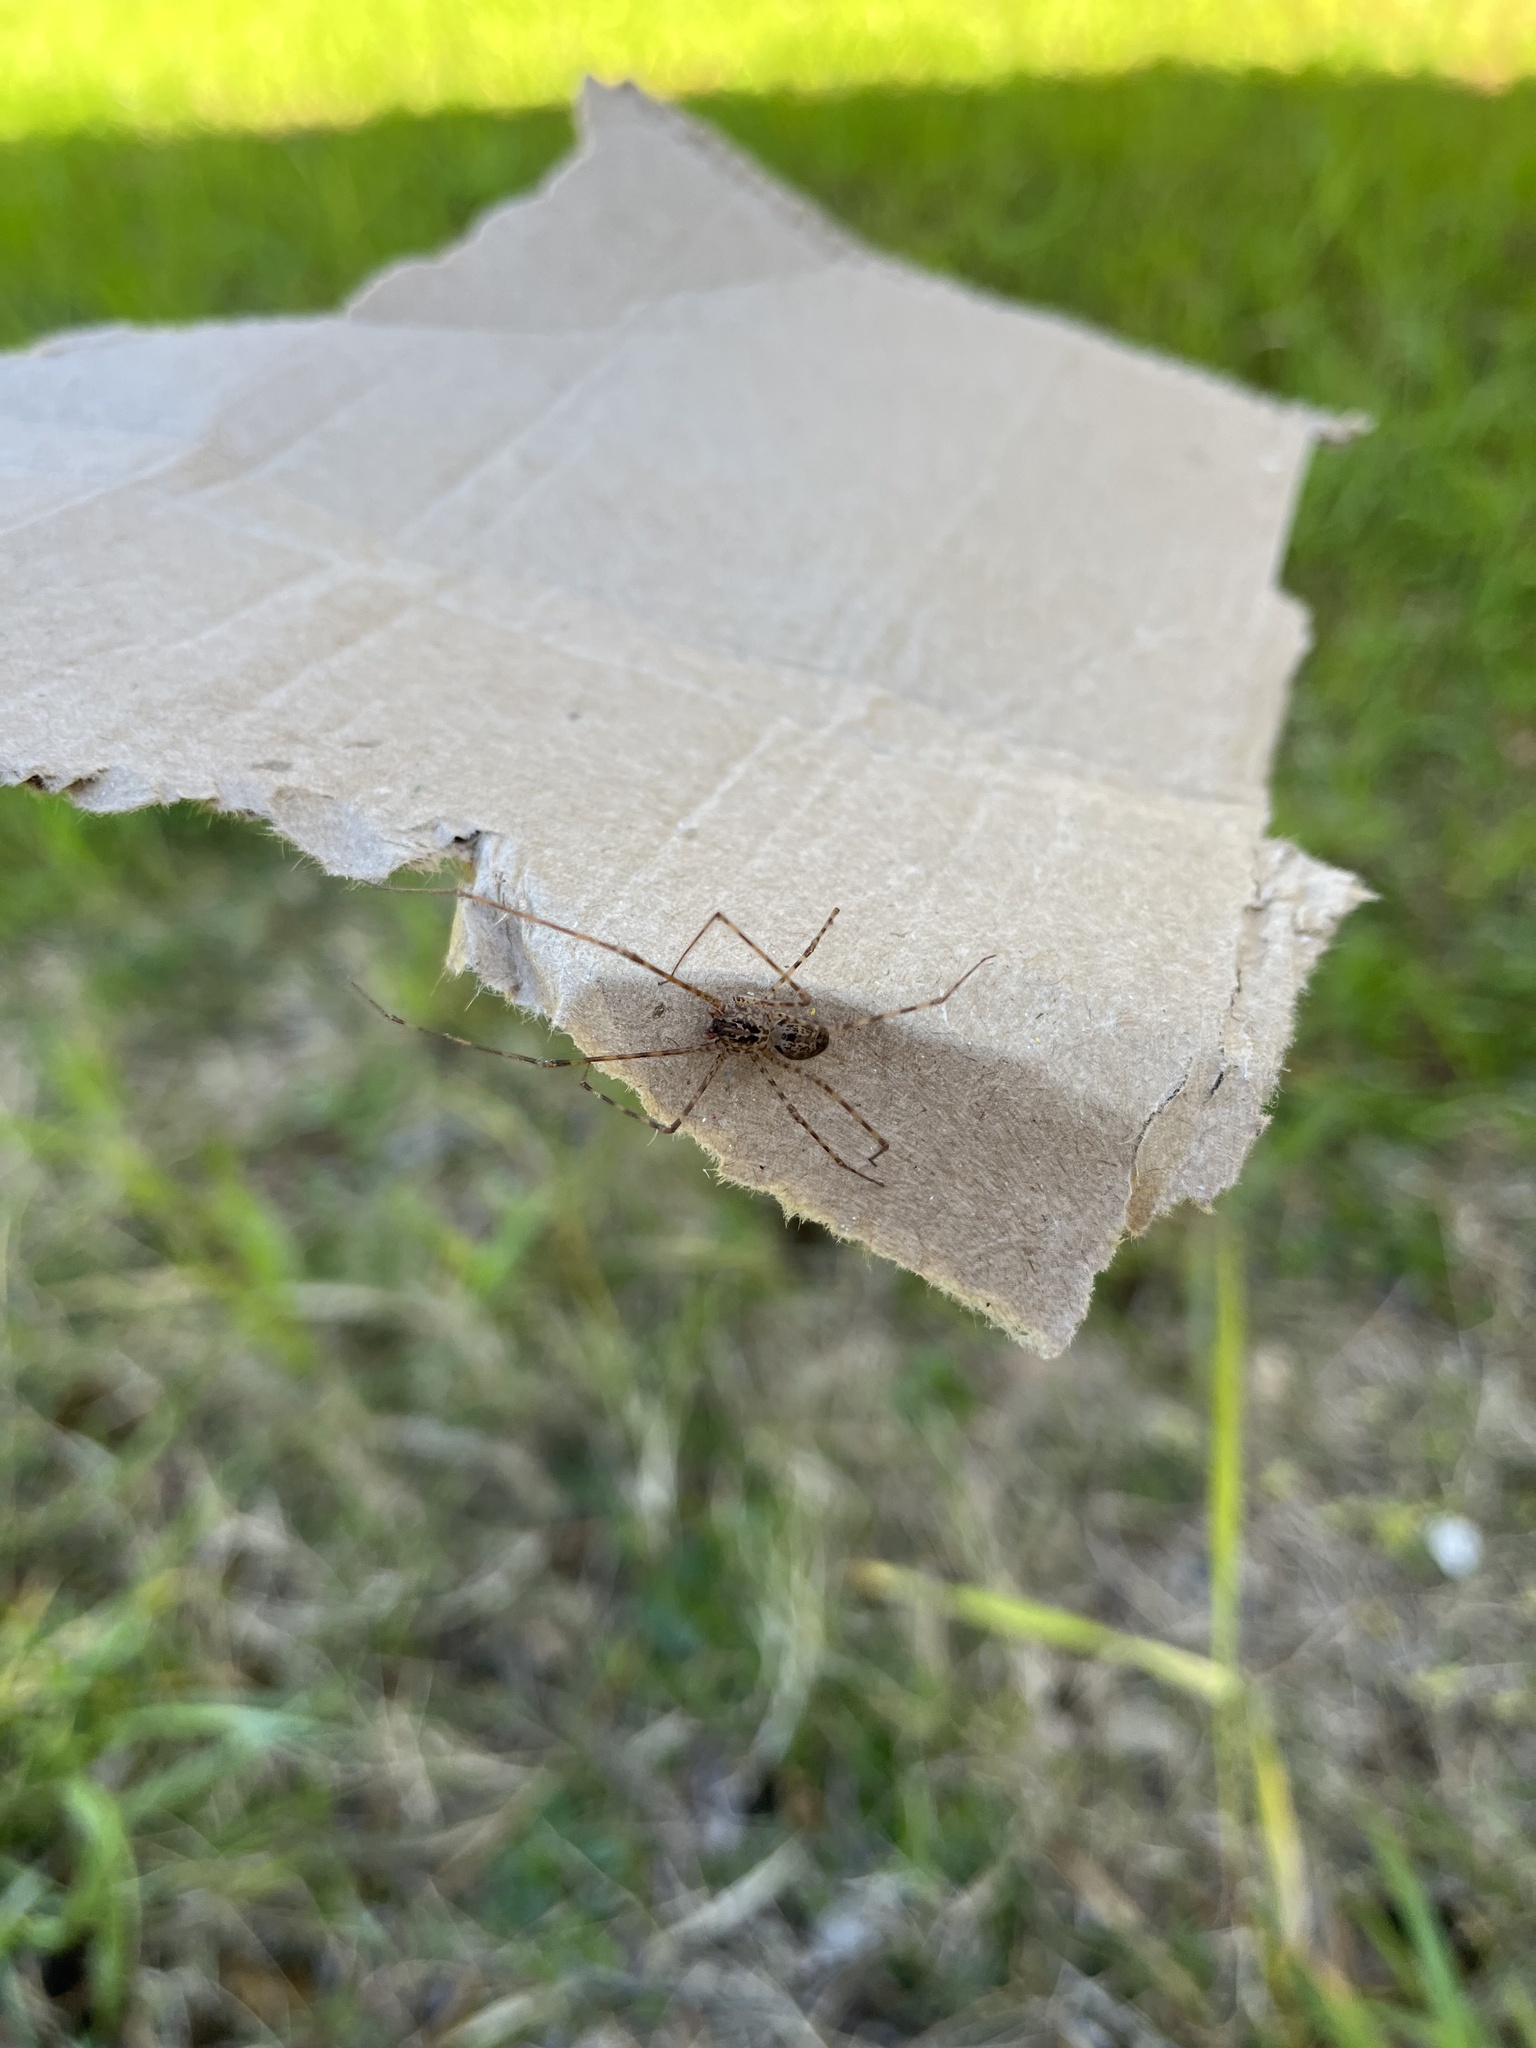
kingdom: Animalia
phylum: Arthropoda
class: Arachnida
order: Araneae
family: Scytodidae
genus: Scytodes
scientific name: Scytodes globula
